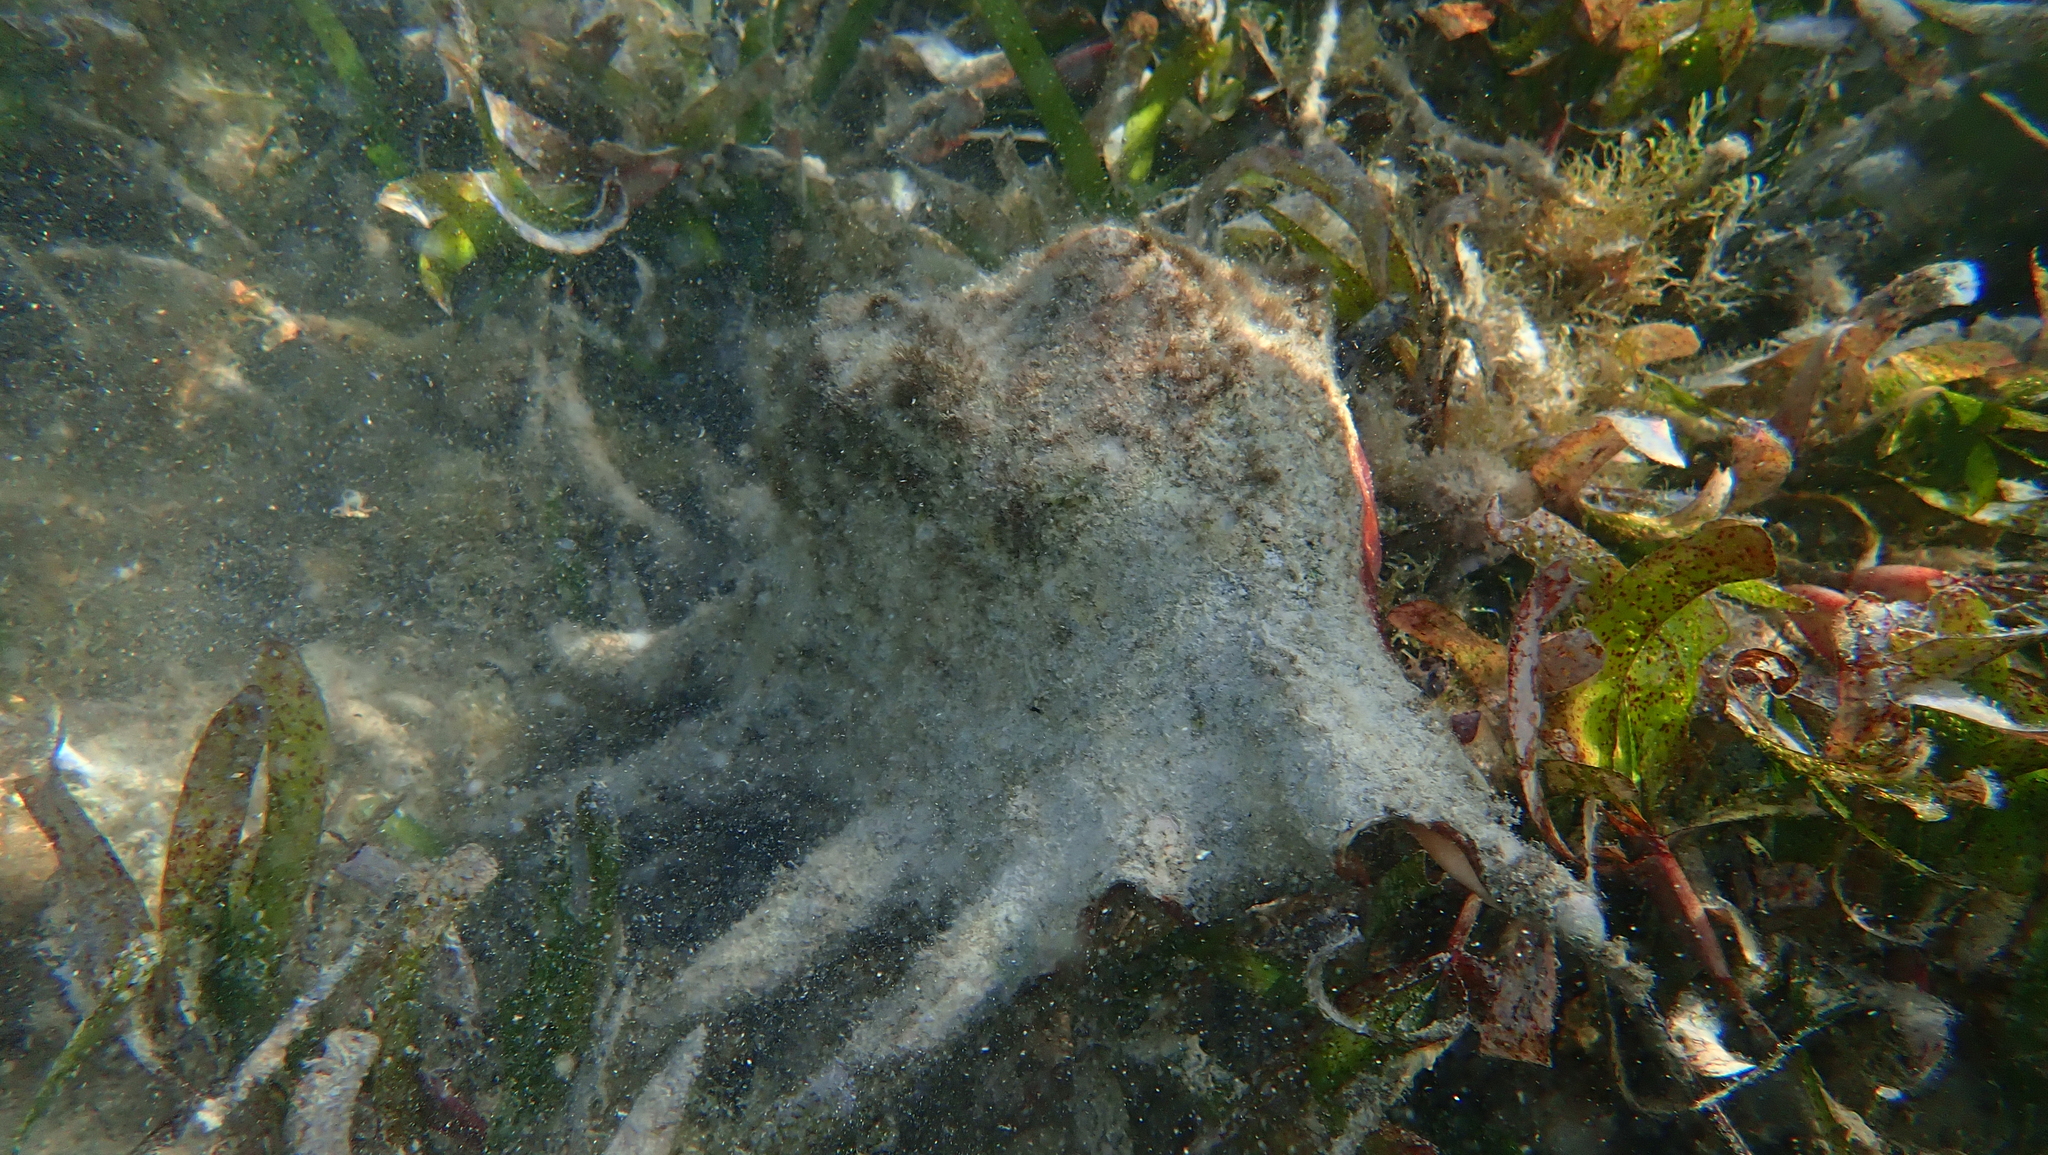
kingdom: Animalia
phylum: Mollusca
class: Gastropoda
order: Littorinimorpha
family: Strombidae
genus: Lambis
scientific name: Lambis lambis
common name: Common spider conch
